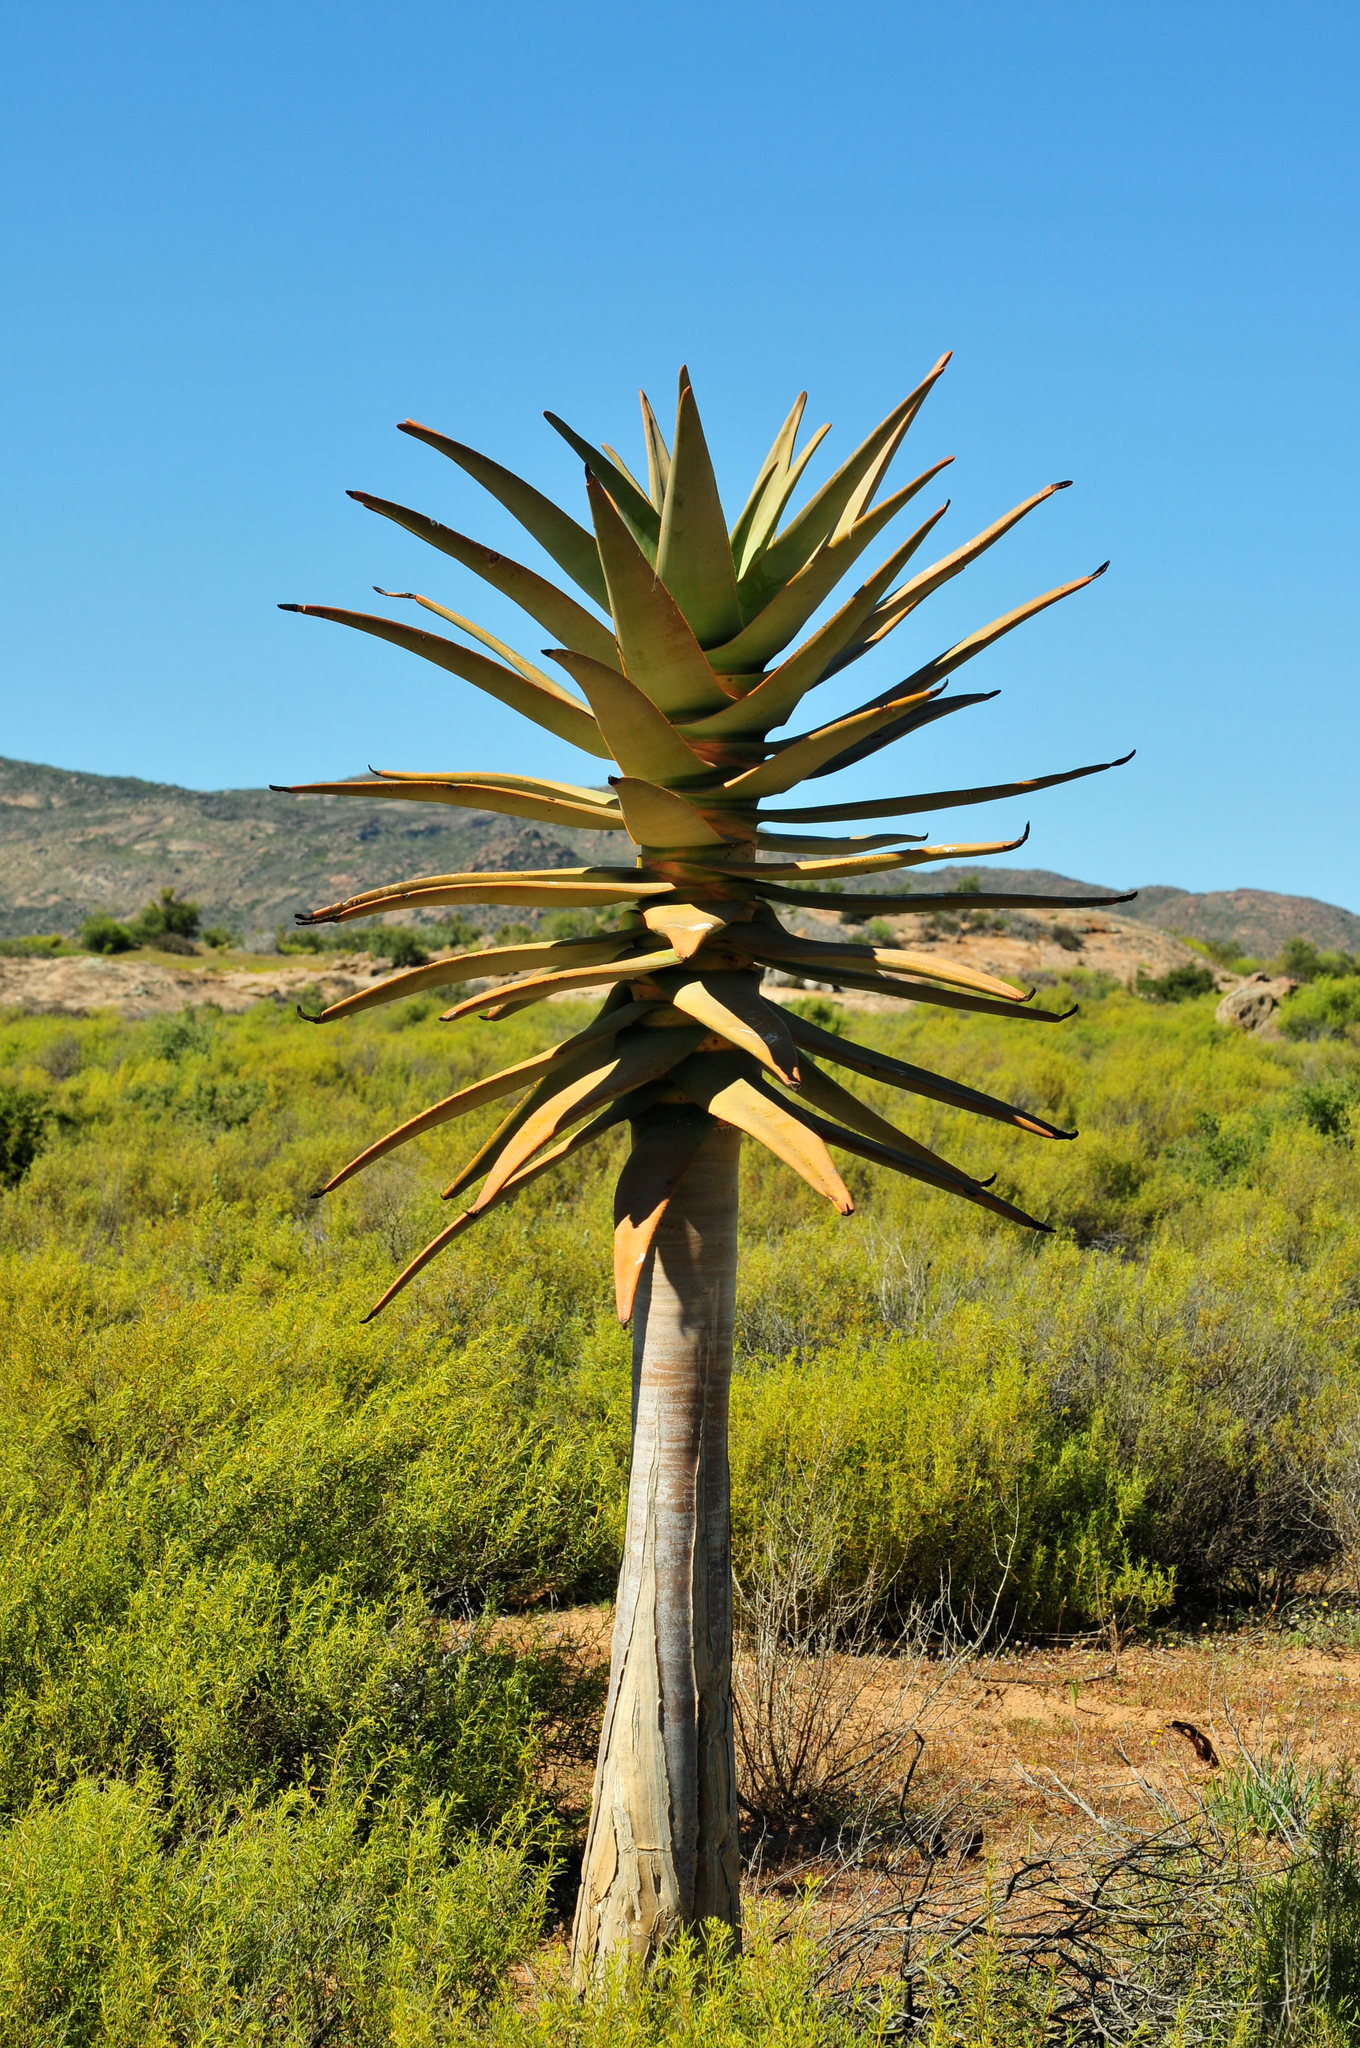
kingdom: Plantae
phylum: Tracheophyta
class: Liliopsida
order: Asparagales
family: Asphodelaceae
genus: Aloidendron
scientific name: Aloidendron dichotomum
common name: Quiver tree
